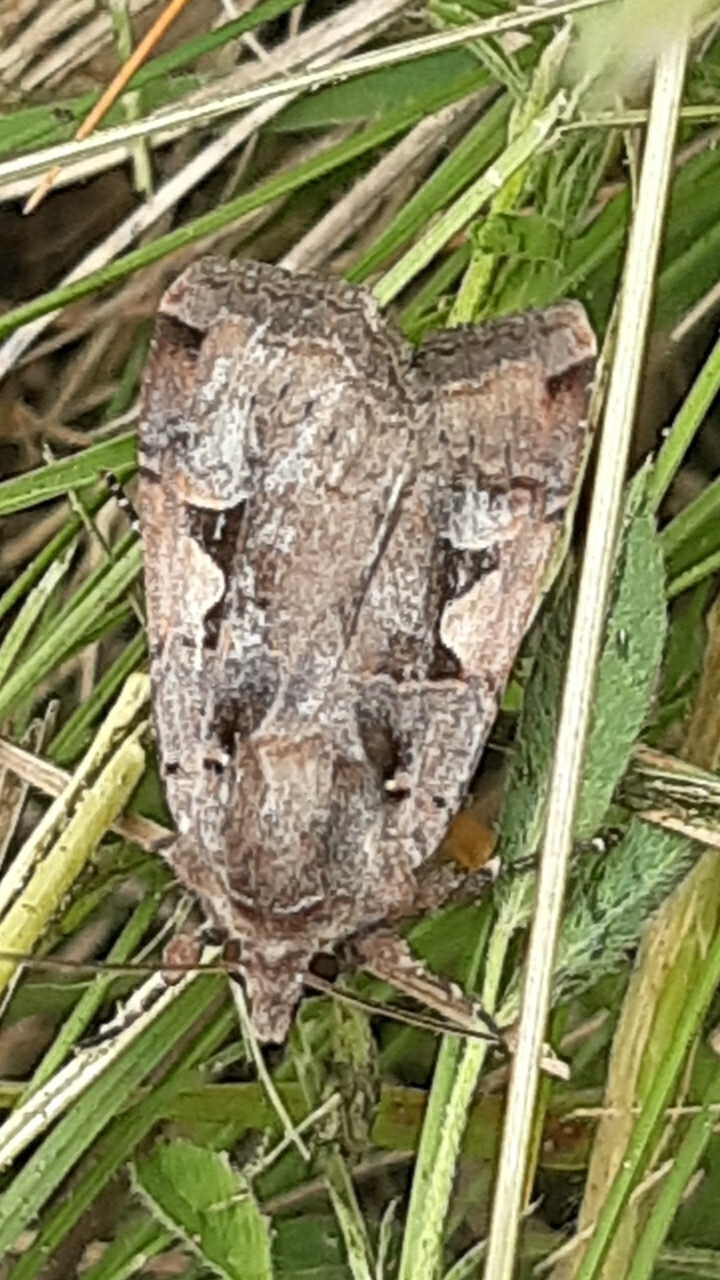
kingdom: Animalia
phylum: Arthropoda
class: Insecta
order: Lepidoptera
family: Noctuidae
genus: Xestia
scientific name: Xestia c-nigrum
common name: Setaceous hebrew character
